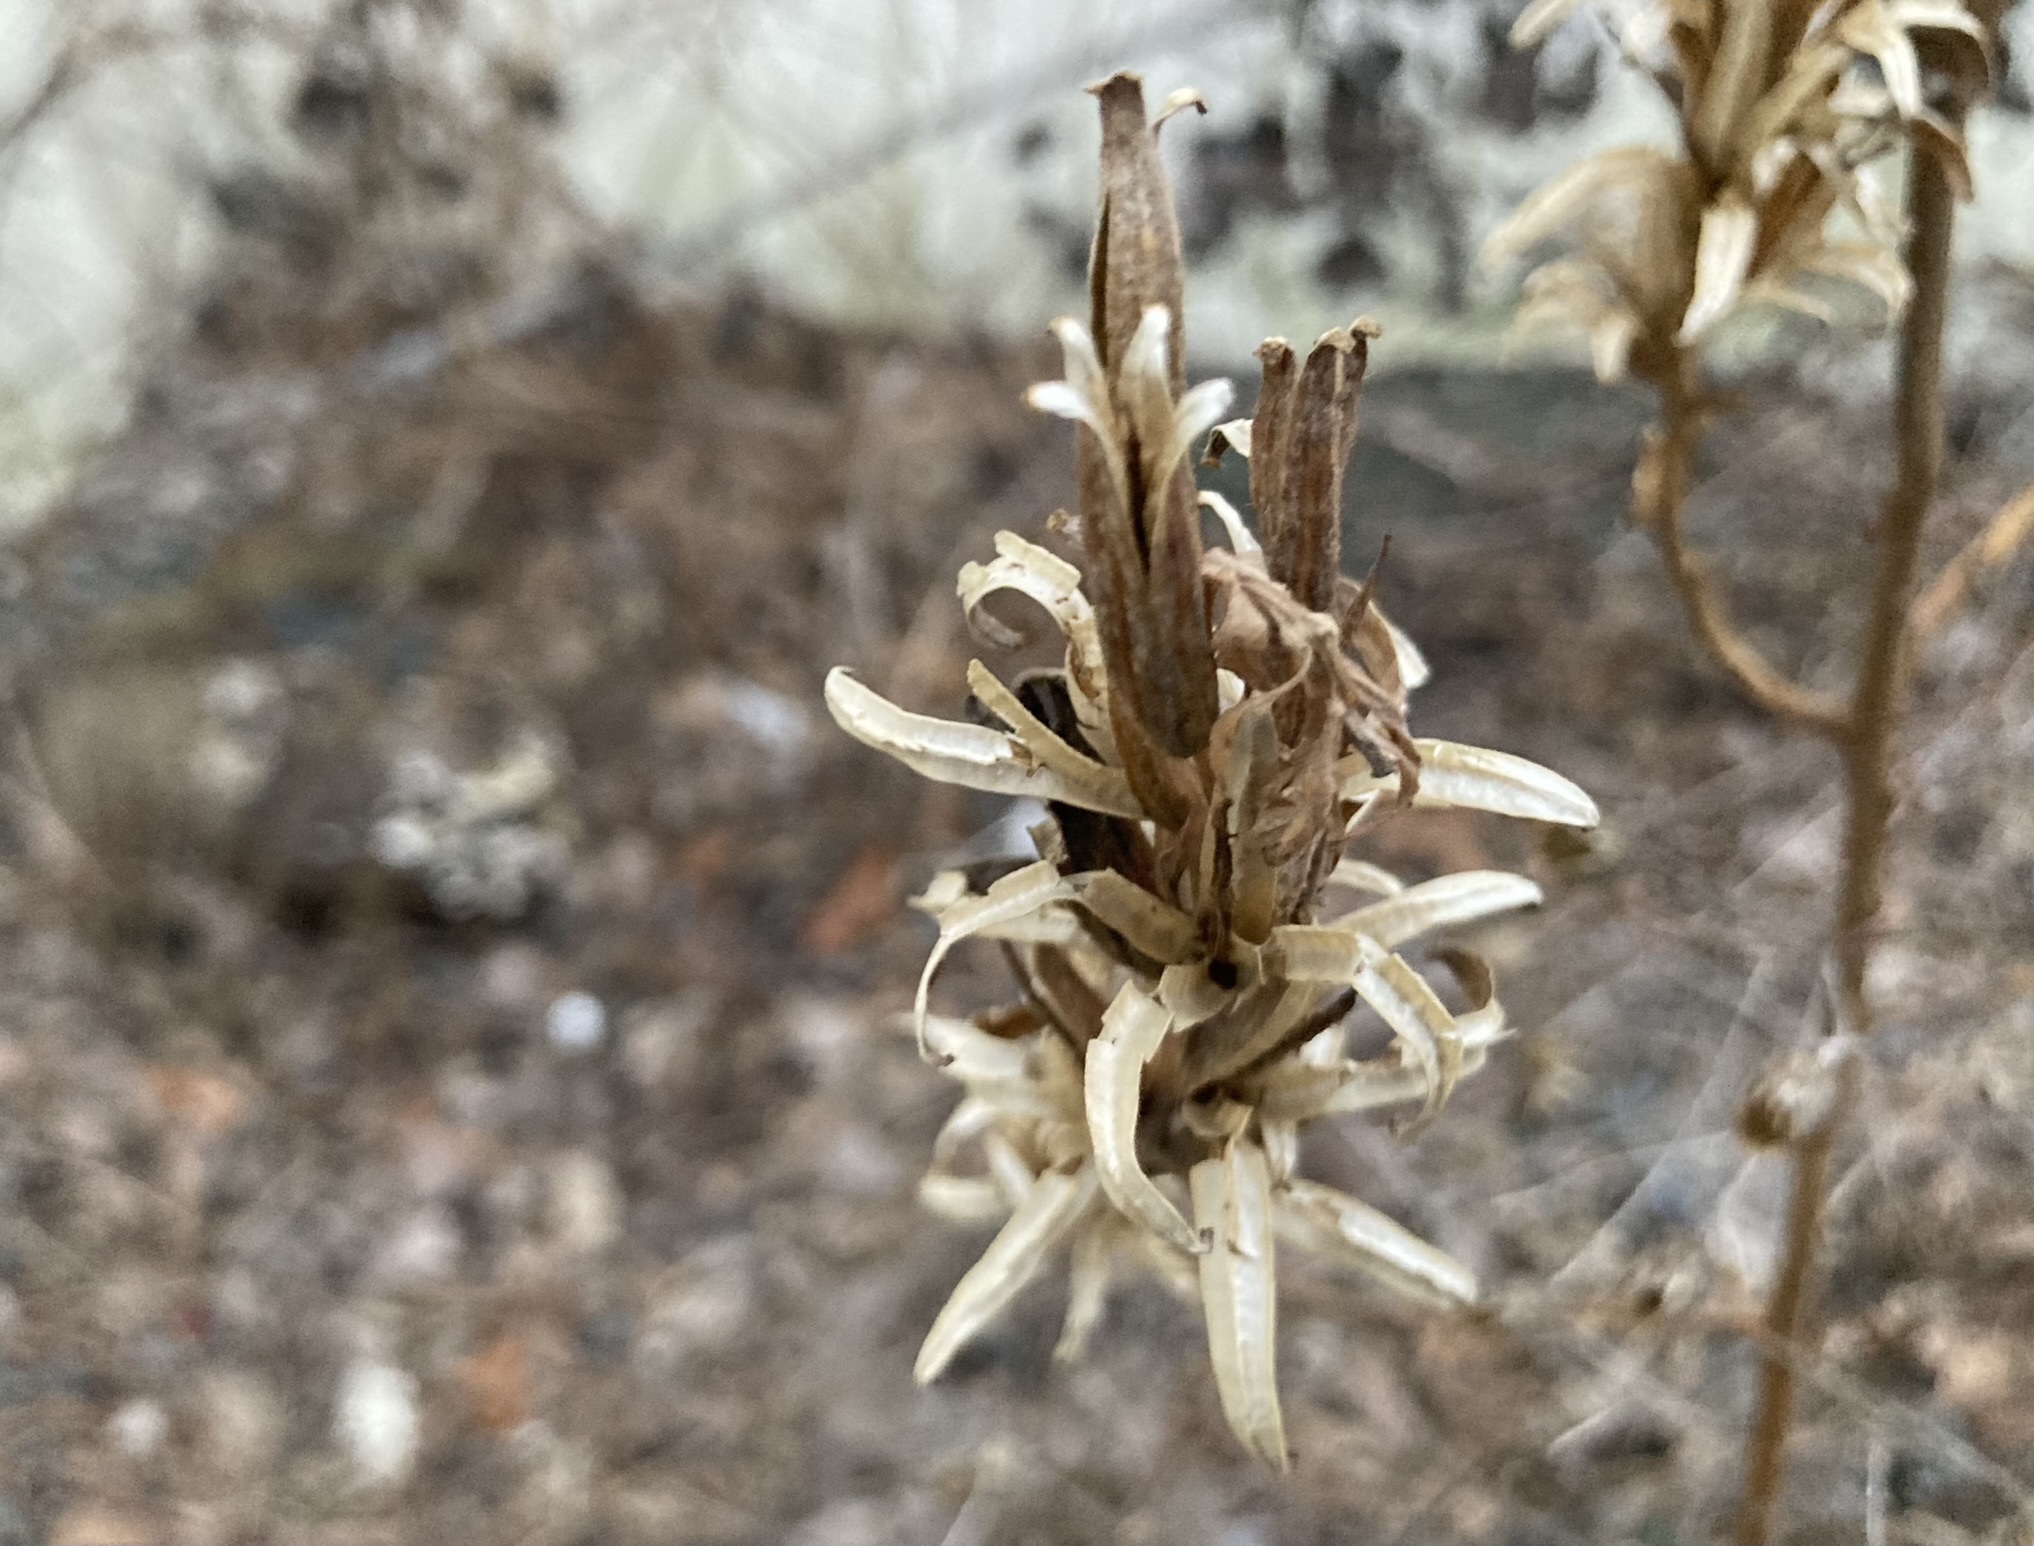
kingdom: Plantae
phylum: Tracheophyta
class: Magnoliopsida
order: Myrtales
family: Onagraceae
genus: Oenothera
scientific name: Oenothera biennis
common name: Common evening-primrose
